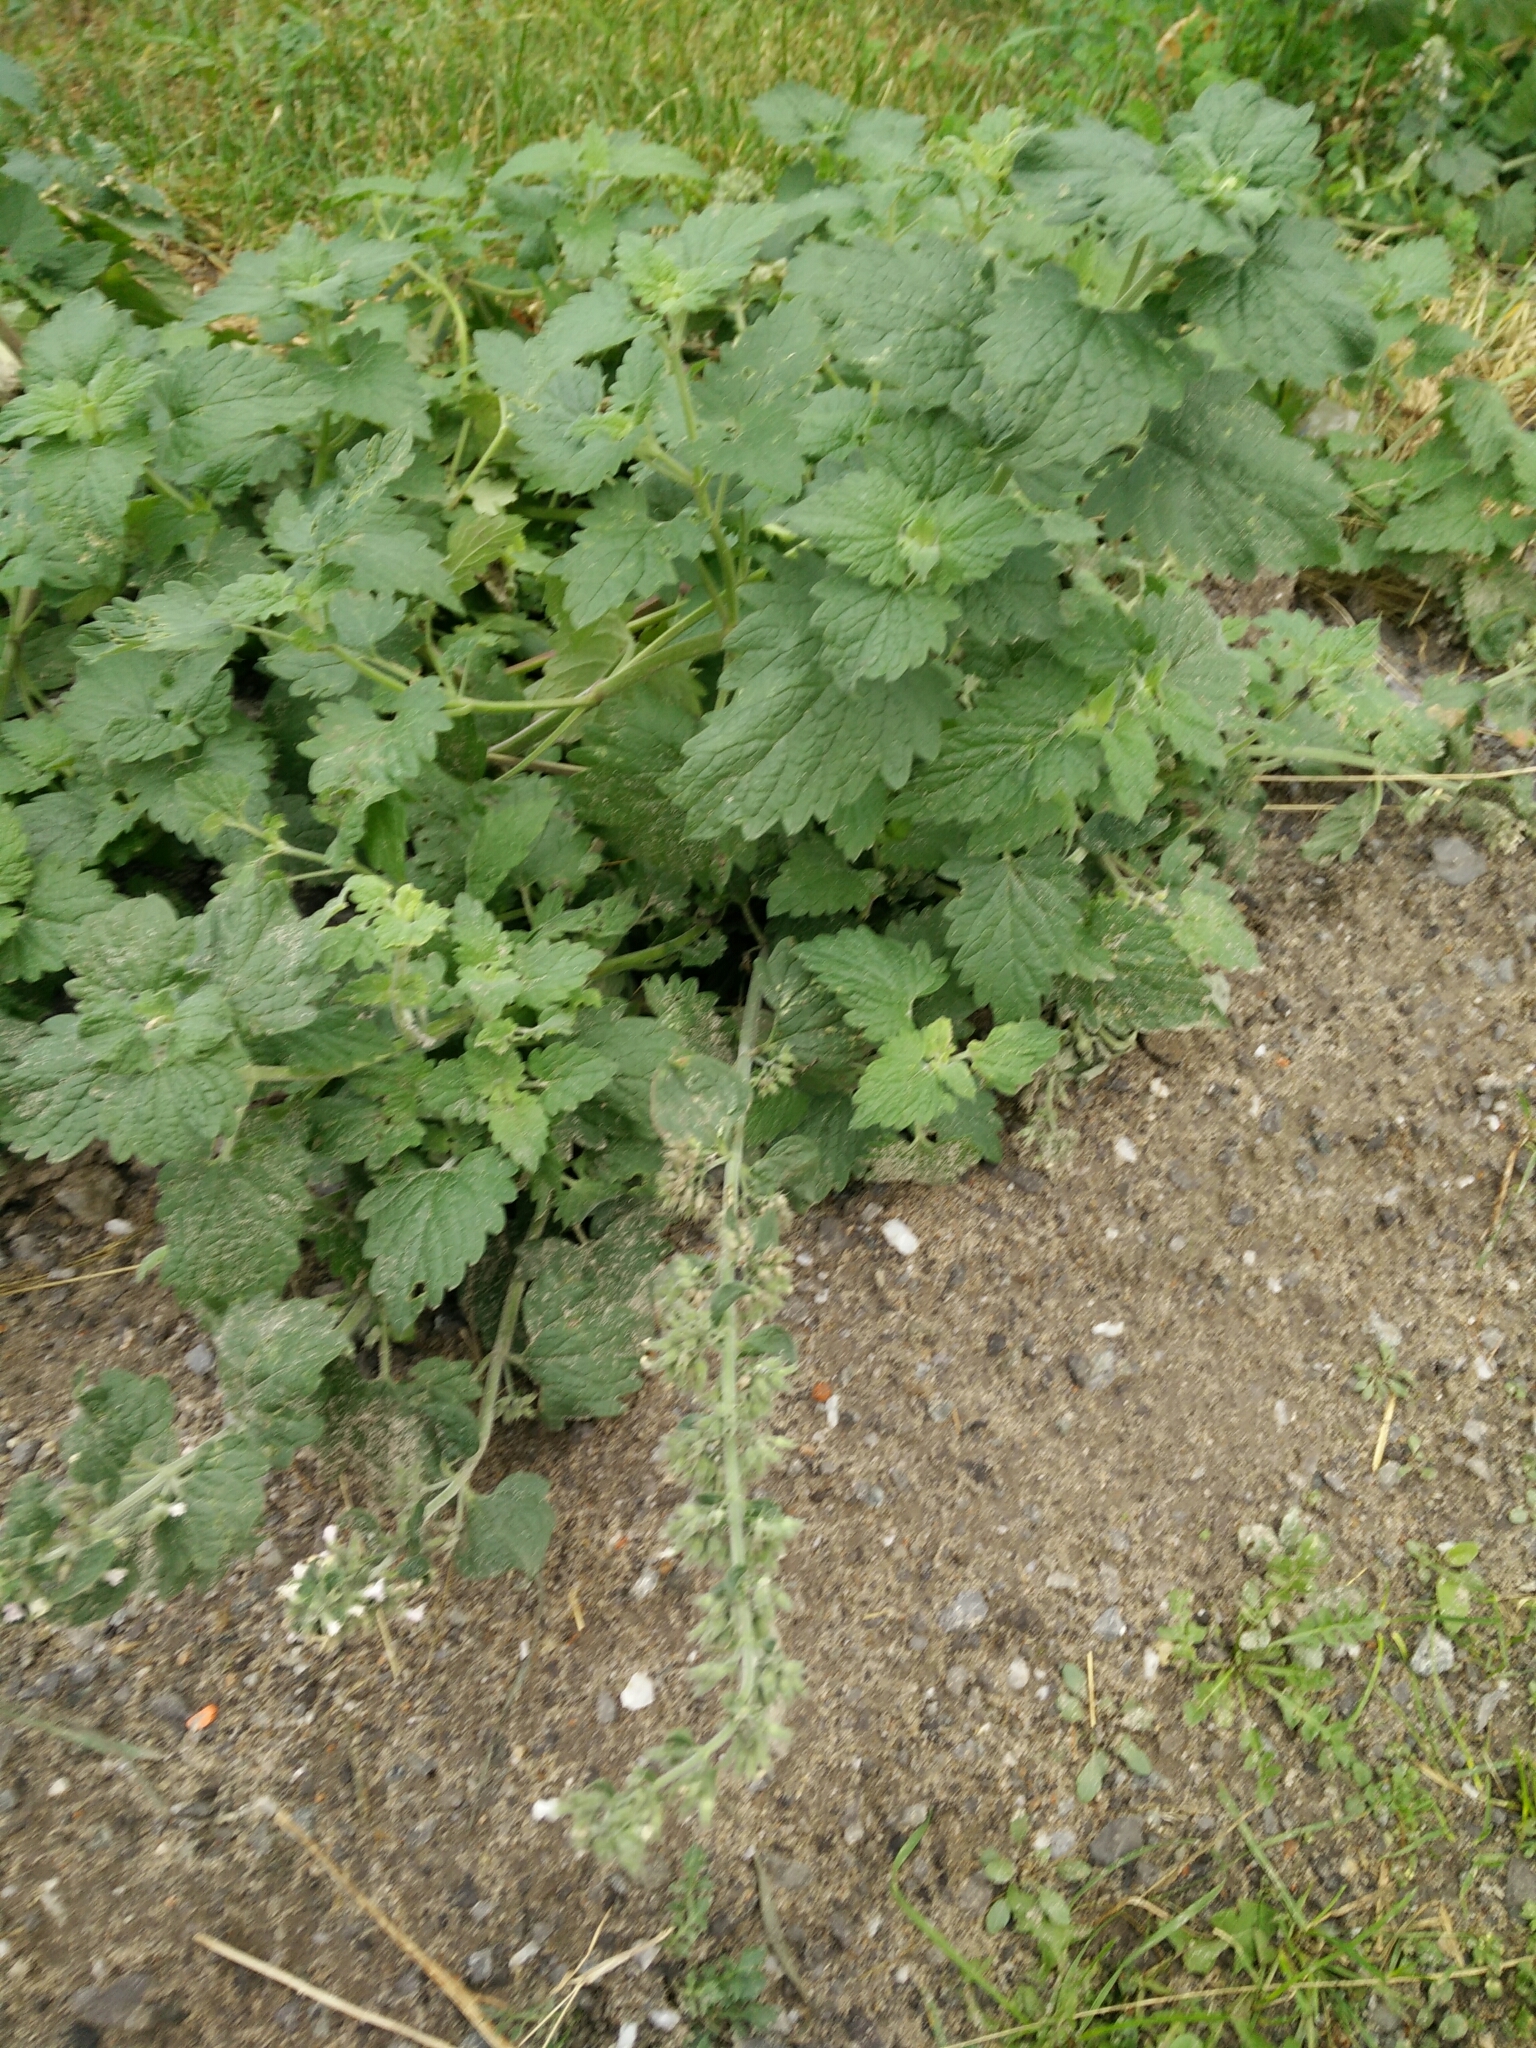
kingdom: Plantae
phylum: Tracheophyta
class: Magnoliopsida
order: Lamiales
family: Lamiaceae
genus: Nepeta
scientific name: Nepeta cataria
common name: Catnip
